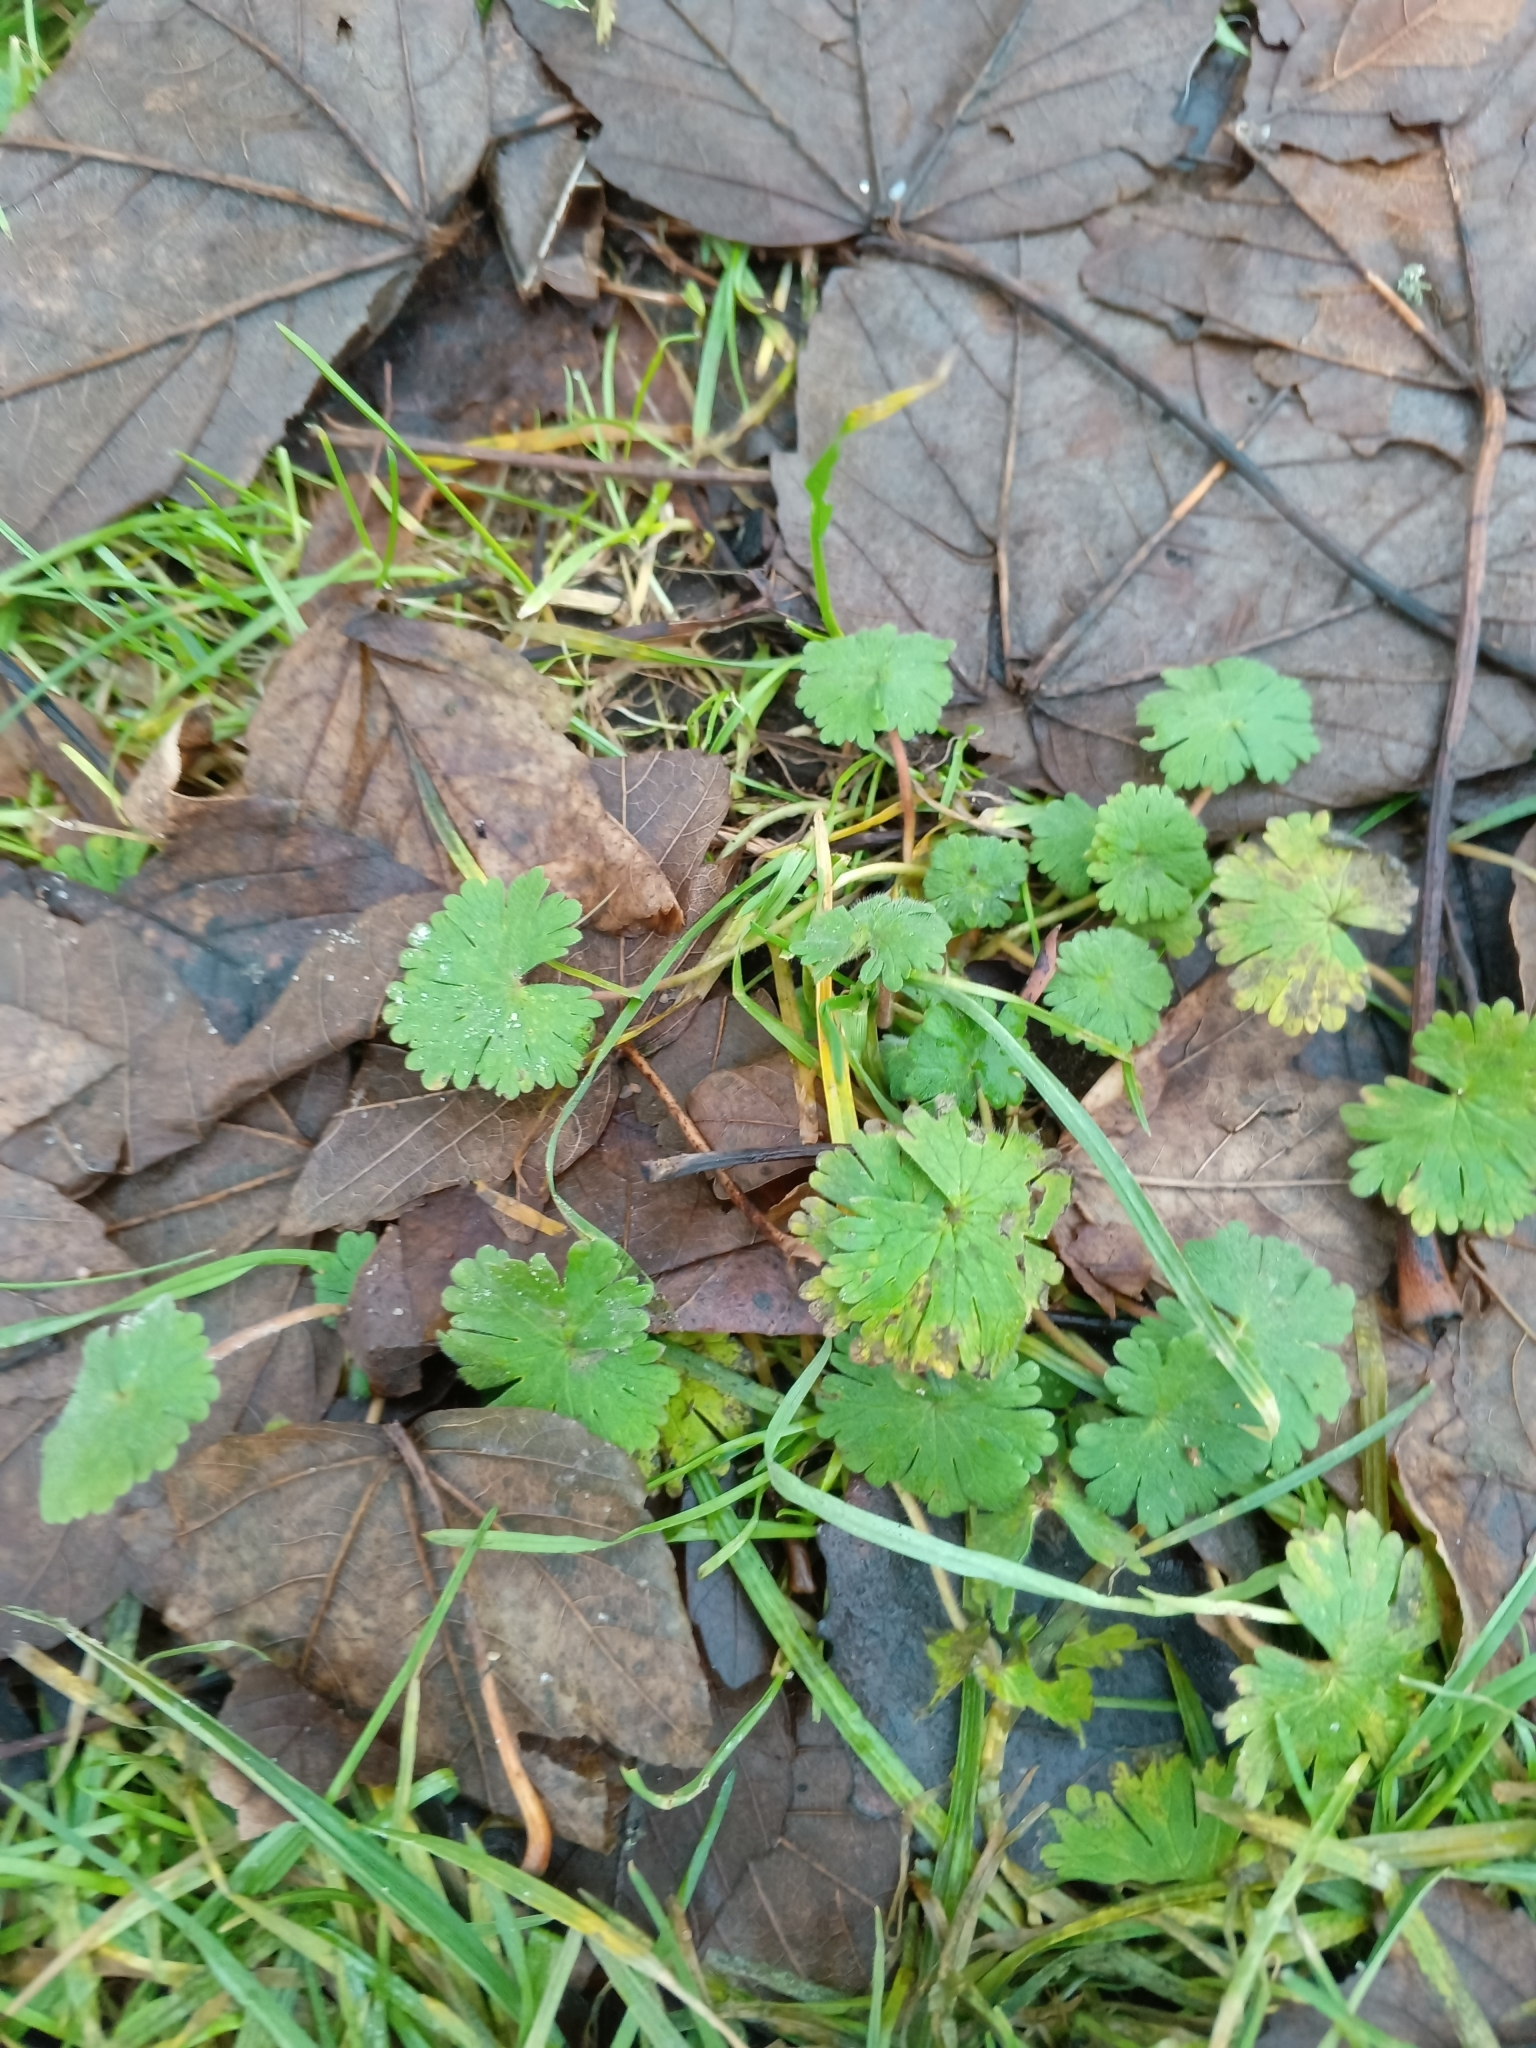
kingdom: Plantae
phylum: Tracheophyta
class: Magnoliopsida
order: Geraniales
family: Geraniaceae
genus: Geranium
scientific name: Geranium pusillum
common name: Small geranium
